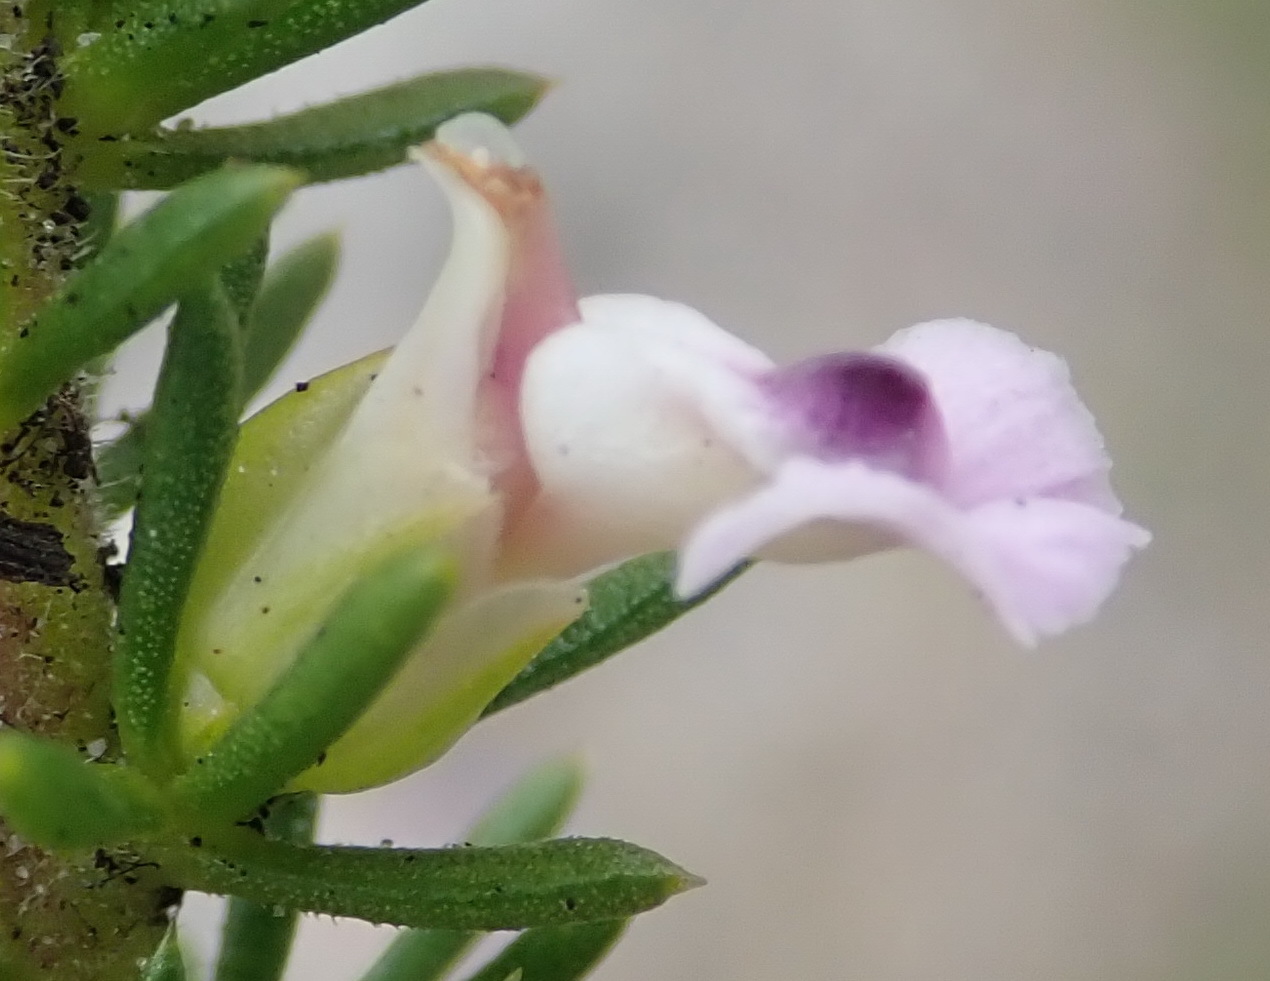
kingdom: Plantae
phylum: Tracheophyta
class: Magnoliopsida
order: Fabales
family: Polygalaceae
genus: Muraltia
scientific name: Muraltia ericifolia
